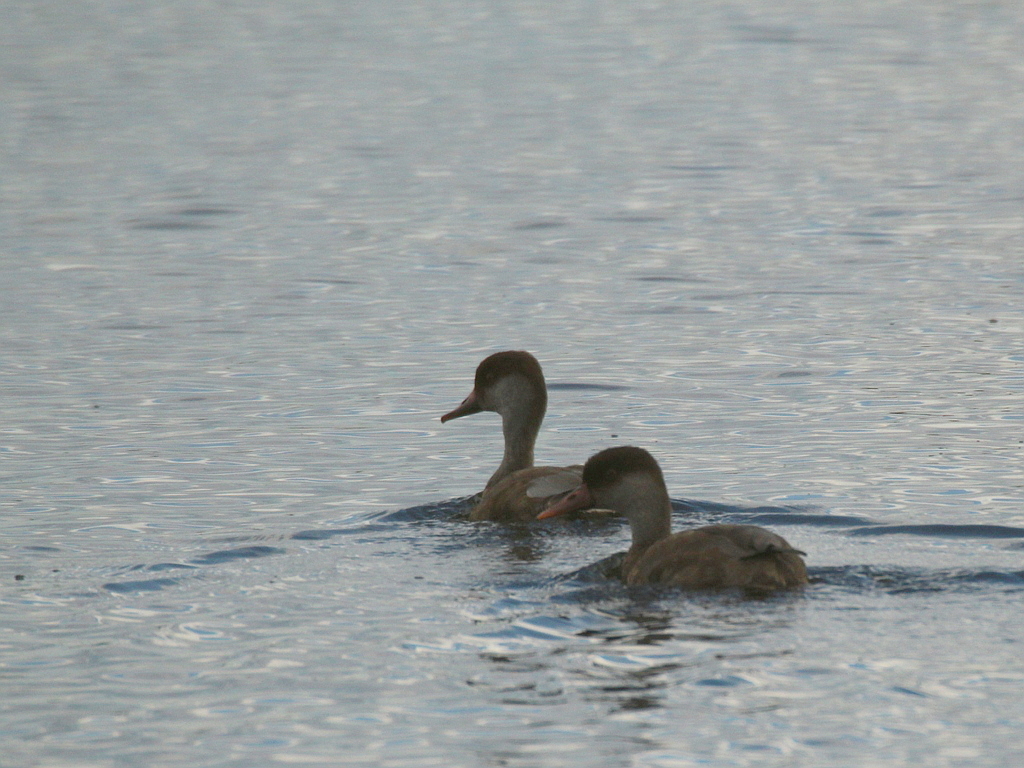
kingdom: Animalia
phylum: Chordata
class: Aves
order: Anseriformes
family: Anatidae
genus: Netta
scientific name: Netta rufina
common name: Red-crested pochard
